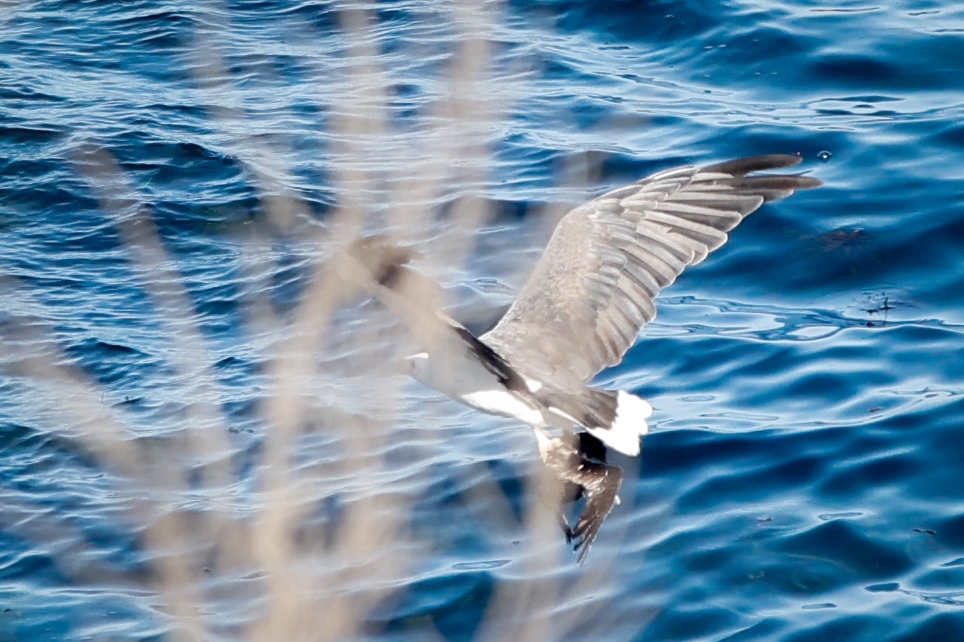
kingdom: Animalia
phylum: Chordata
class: Aves
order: Accipitriformes
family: Accipitridae
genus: Haliaeetus
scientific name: Haliaeetus leucogaster
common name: White-bellied sea eagle
